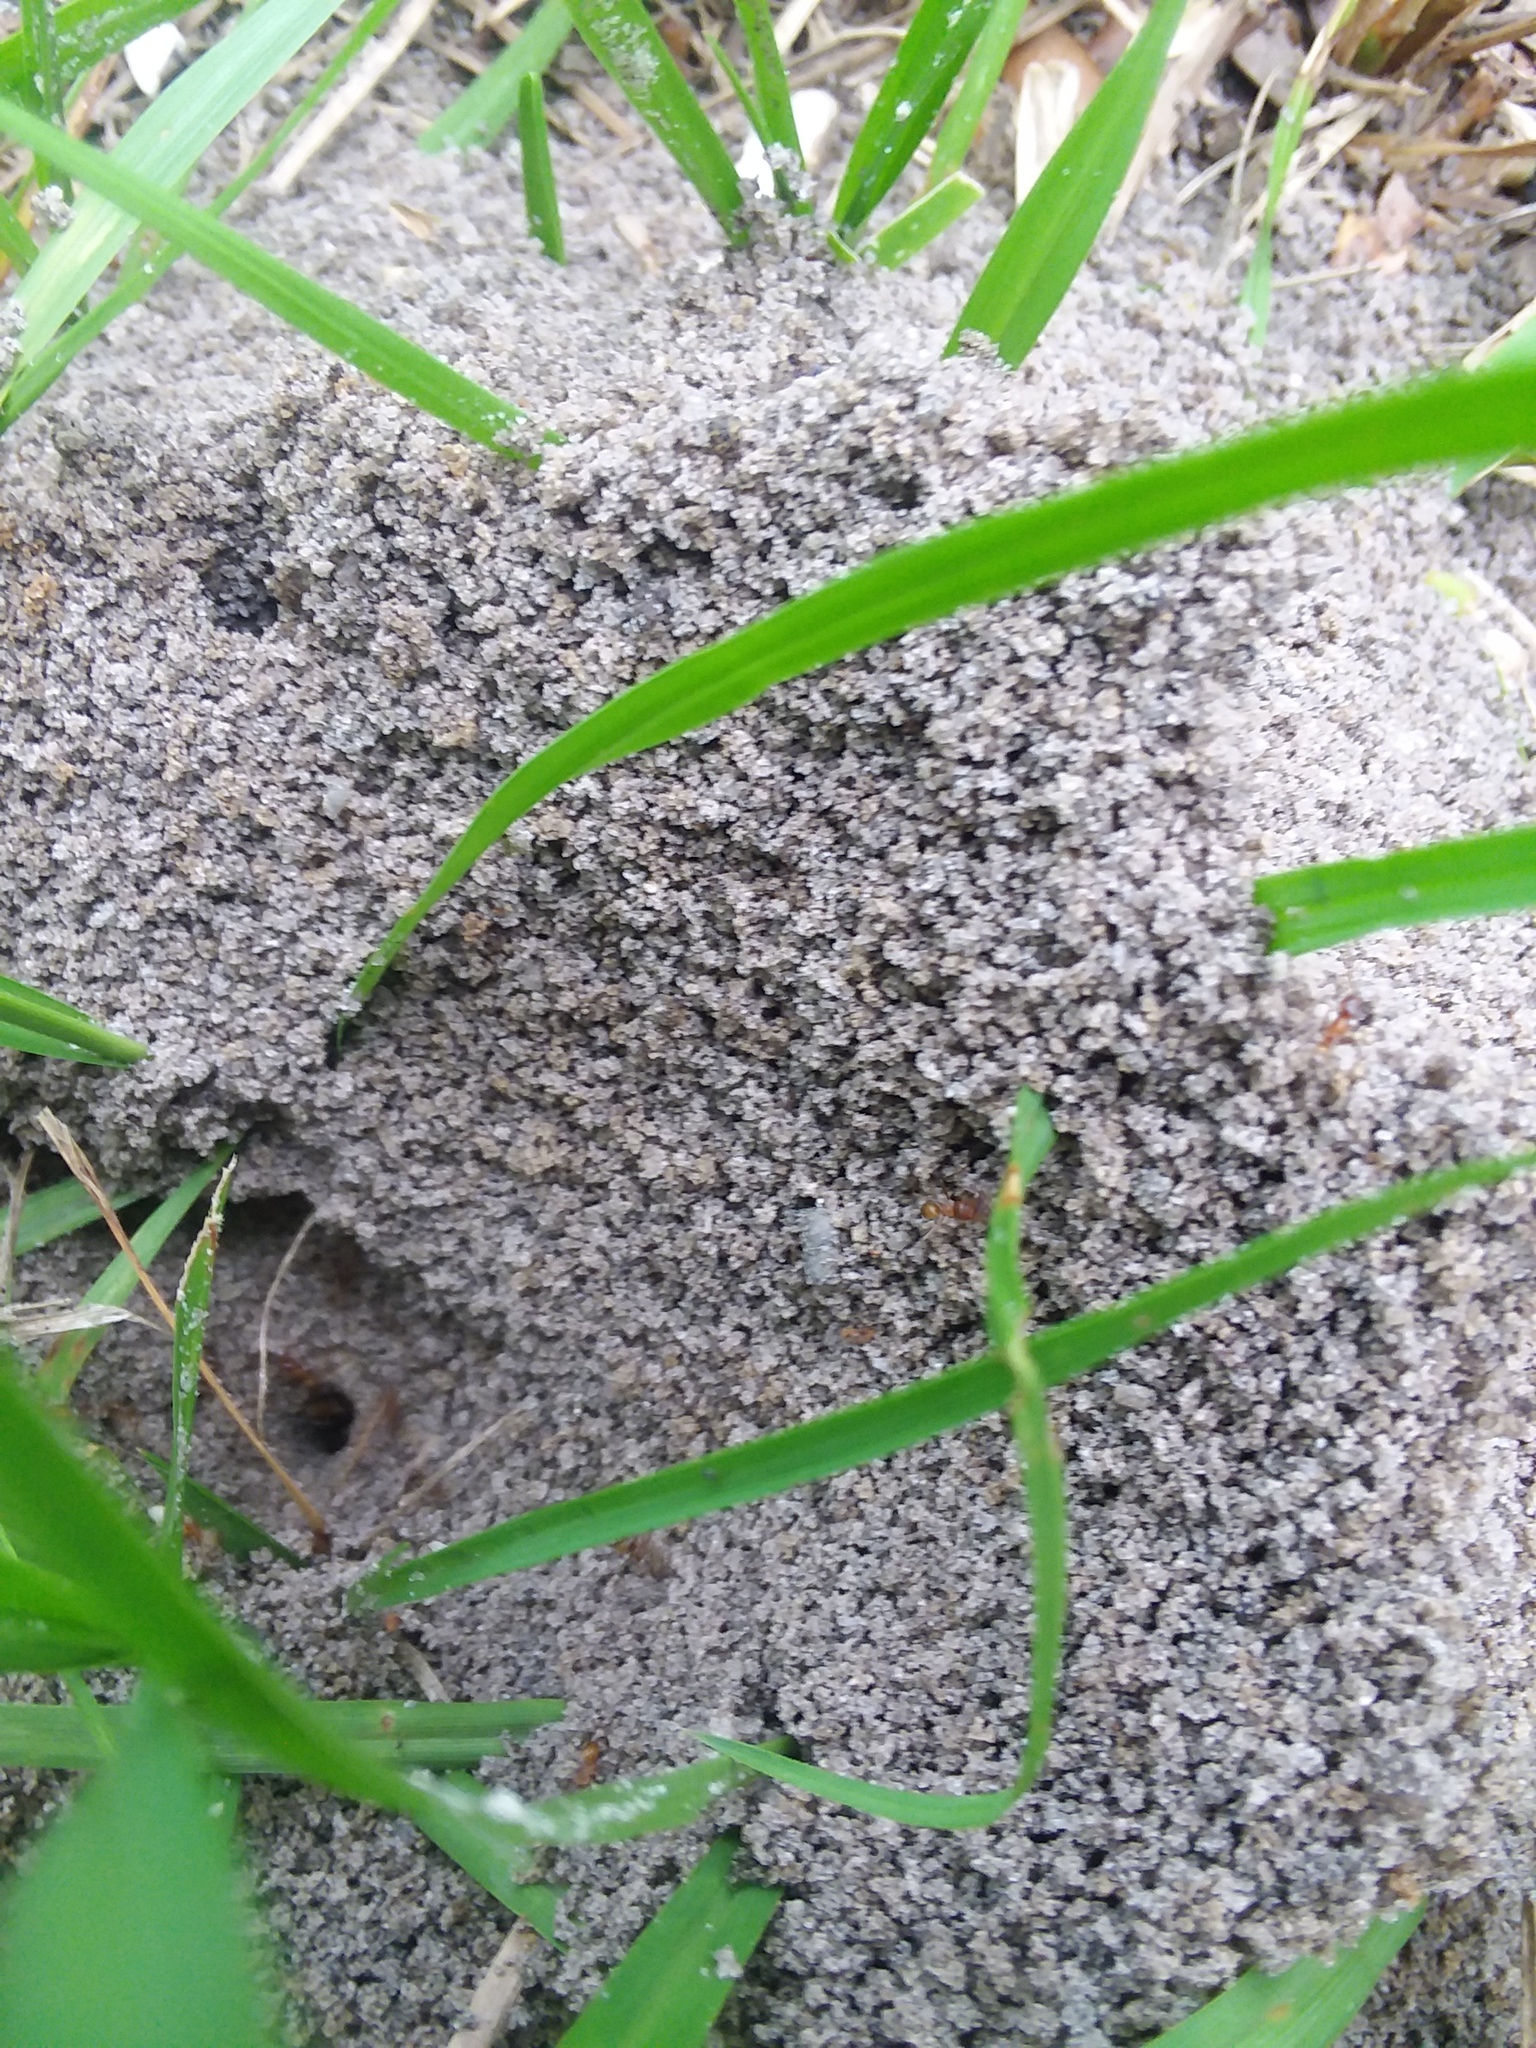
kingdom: Animalia
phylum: Arthropoda
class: Insecta
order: Hymenoptera
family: Formicidae
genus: Dorymyrmex
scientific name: Dorymyrmex bureni
